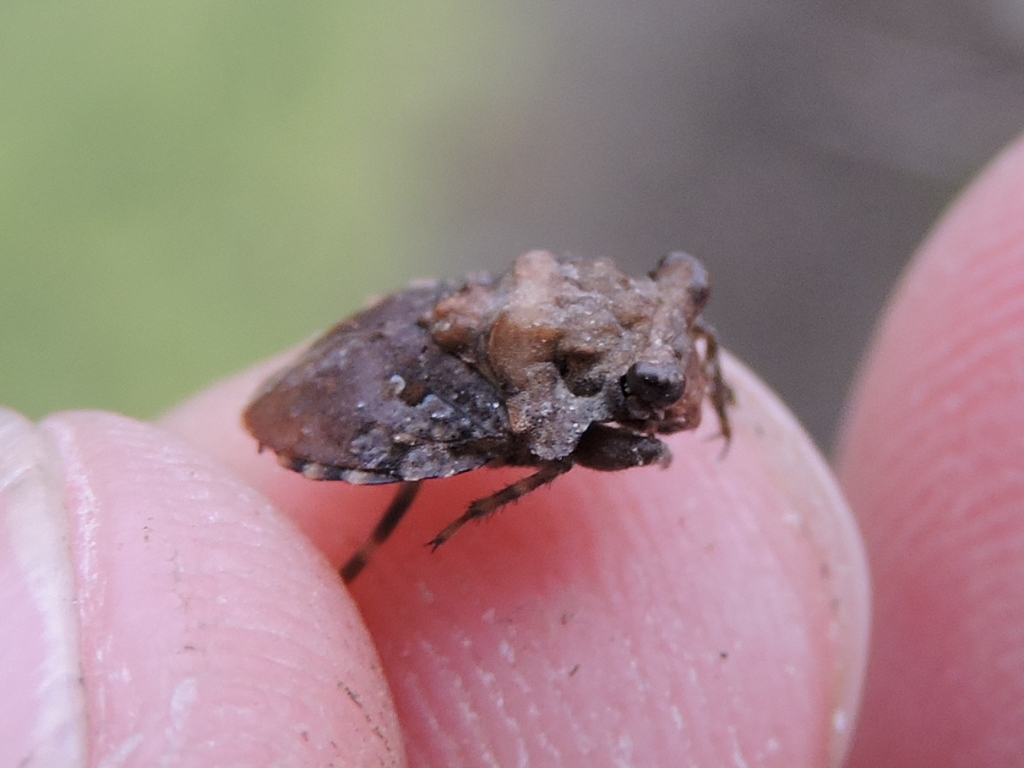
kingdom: Animalia
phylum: Arthropoda
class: Insecta
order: Hemiptera
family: Gelastocoridae
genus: Gelastocoris
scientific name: Gelastocoris oculatus
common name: Toad bug
